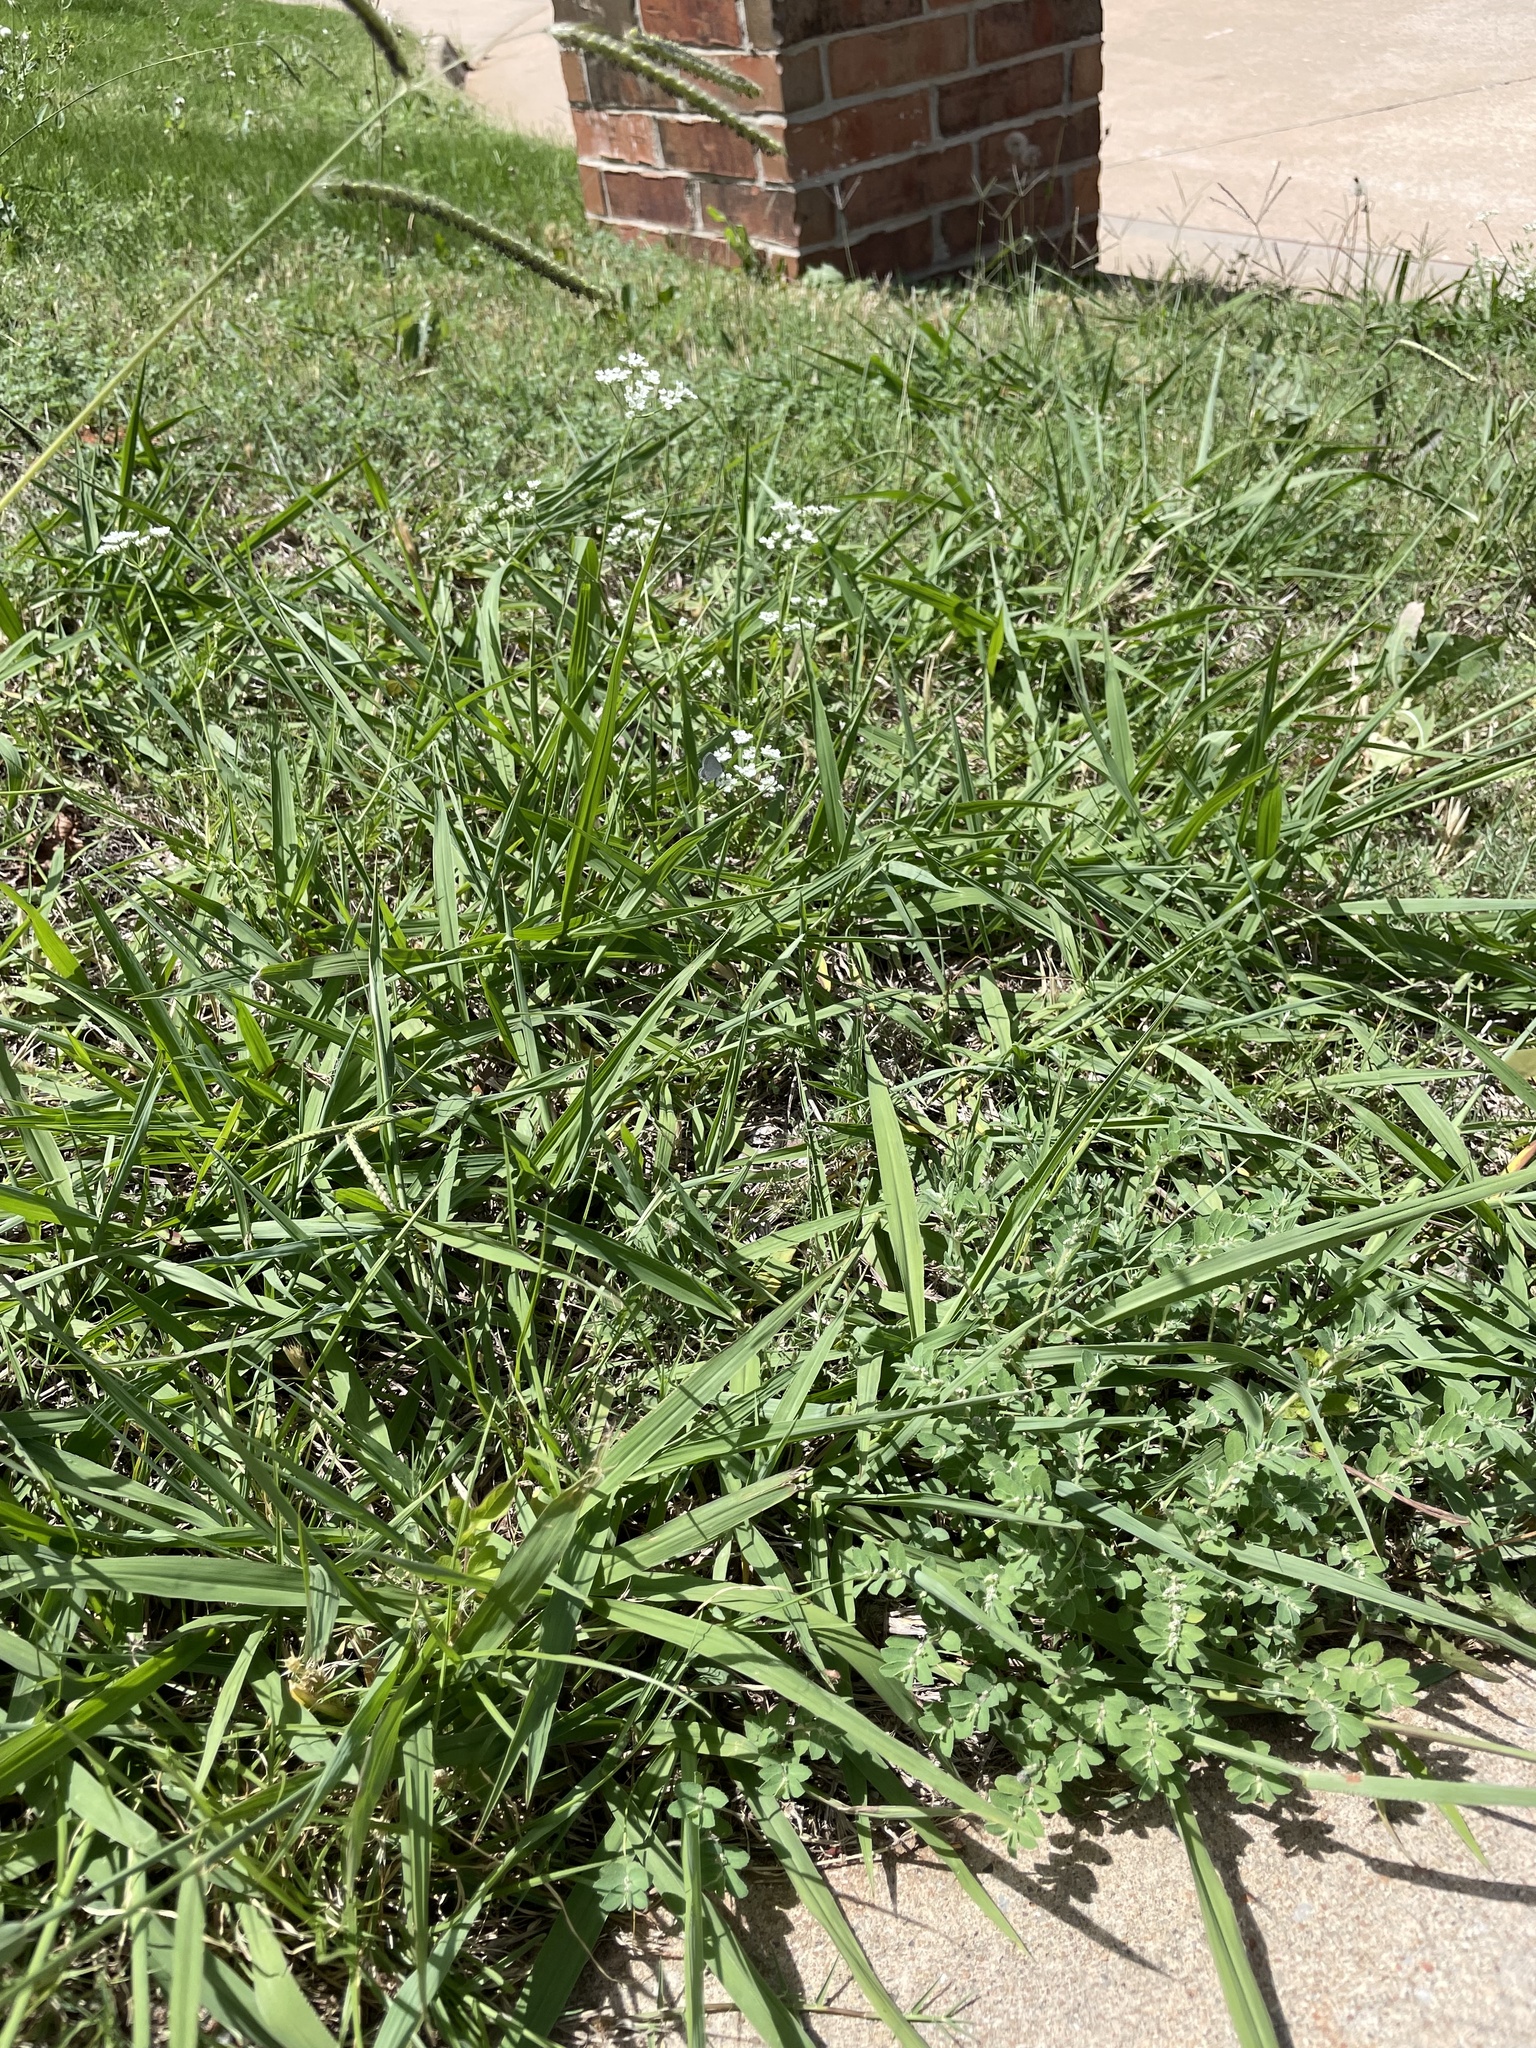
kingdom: Animalia
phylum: Arthropoda
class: Insecta
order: Lepidoptera
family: Lycaenidae
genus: Elkalyce
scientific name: Elkalyce comyntas
